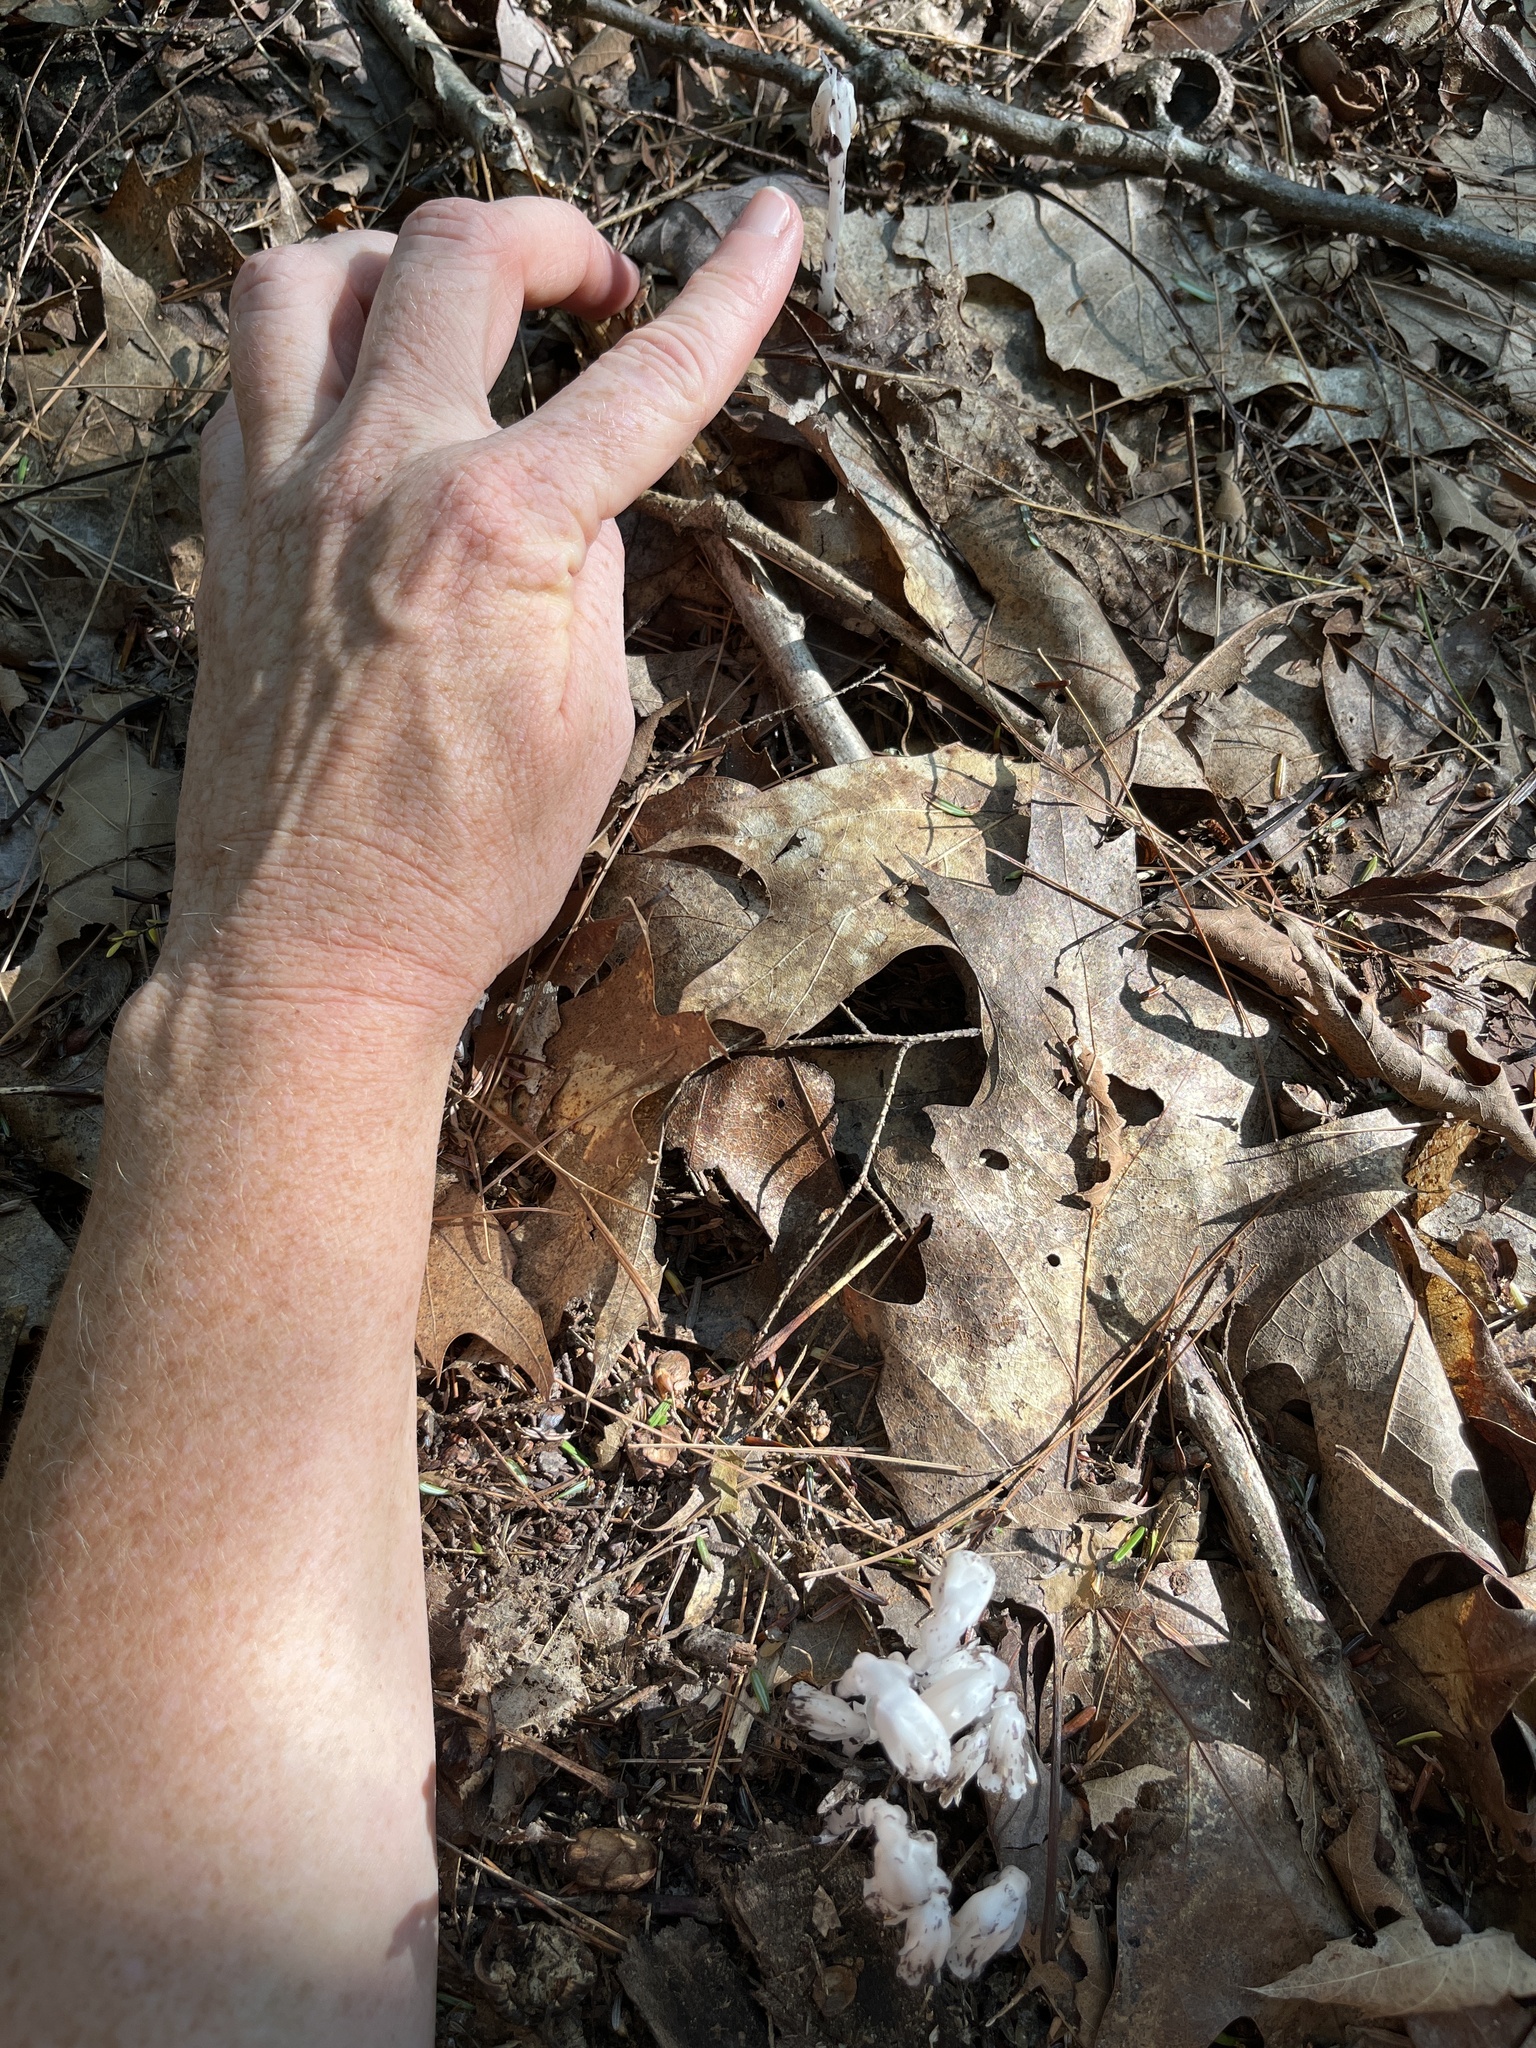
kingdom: Plantae
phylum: Tracheophyta
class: Magnoliopsida
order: Ericales
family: Ericaceae
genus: Monotropa
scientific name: Monotropa uniflora
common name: Convulsion root
